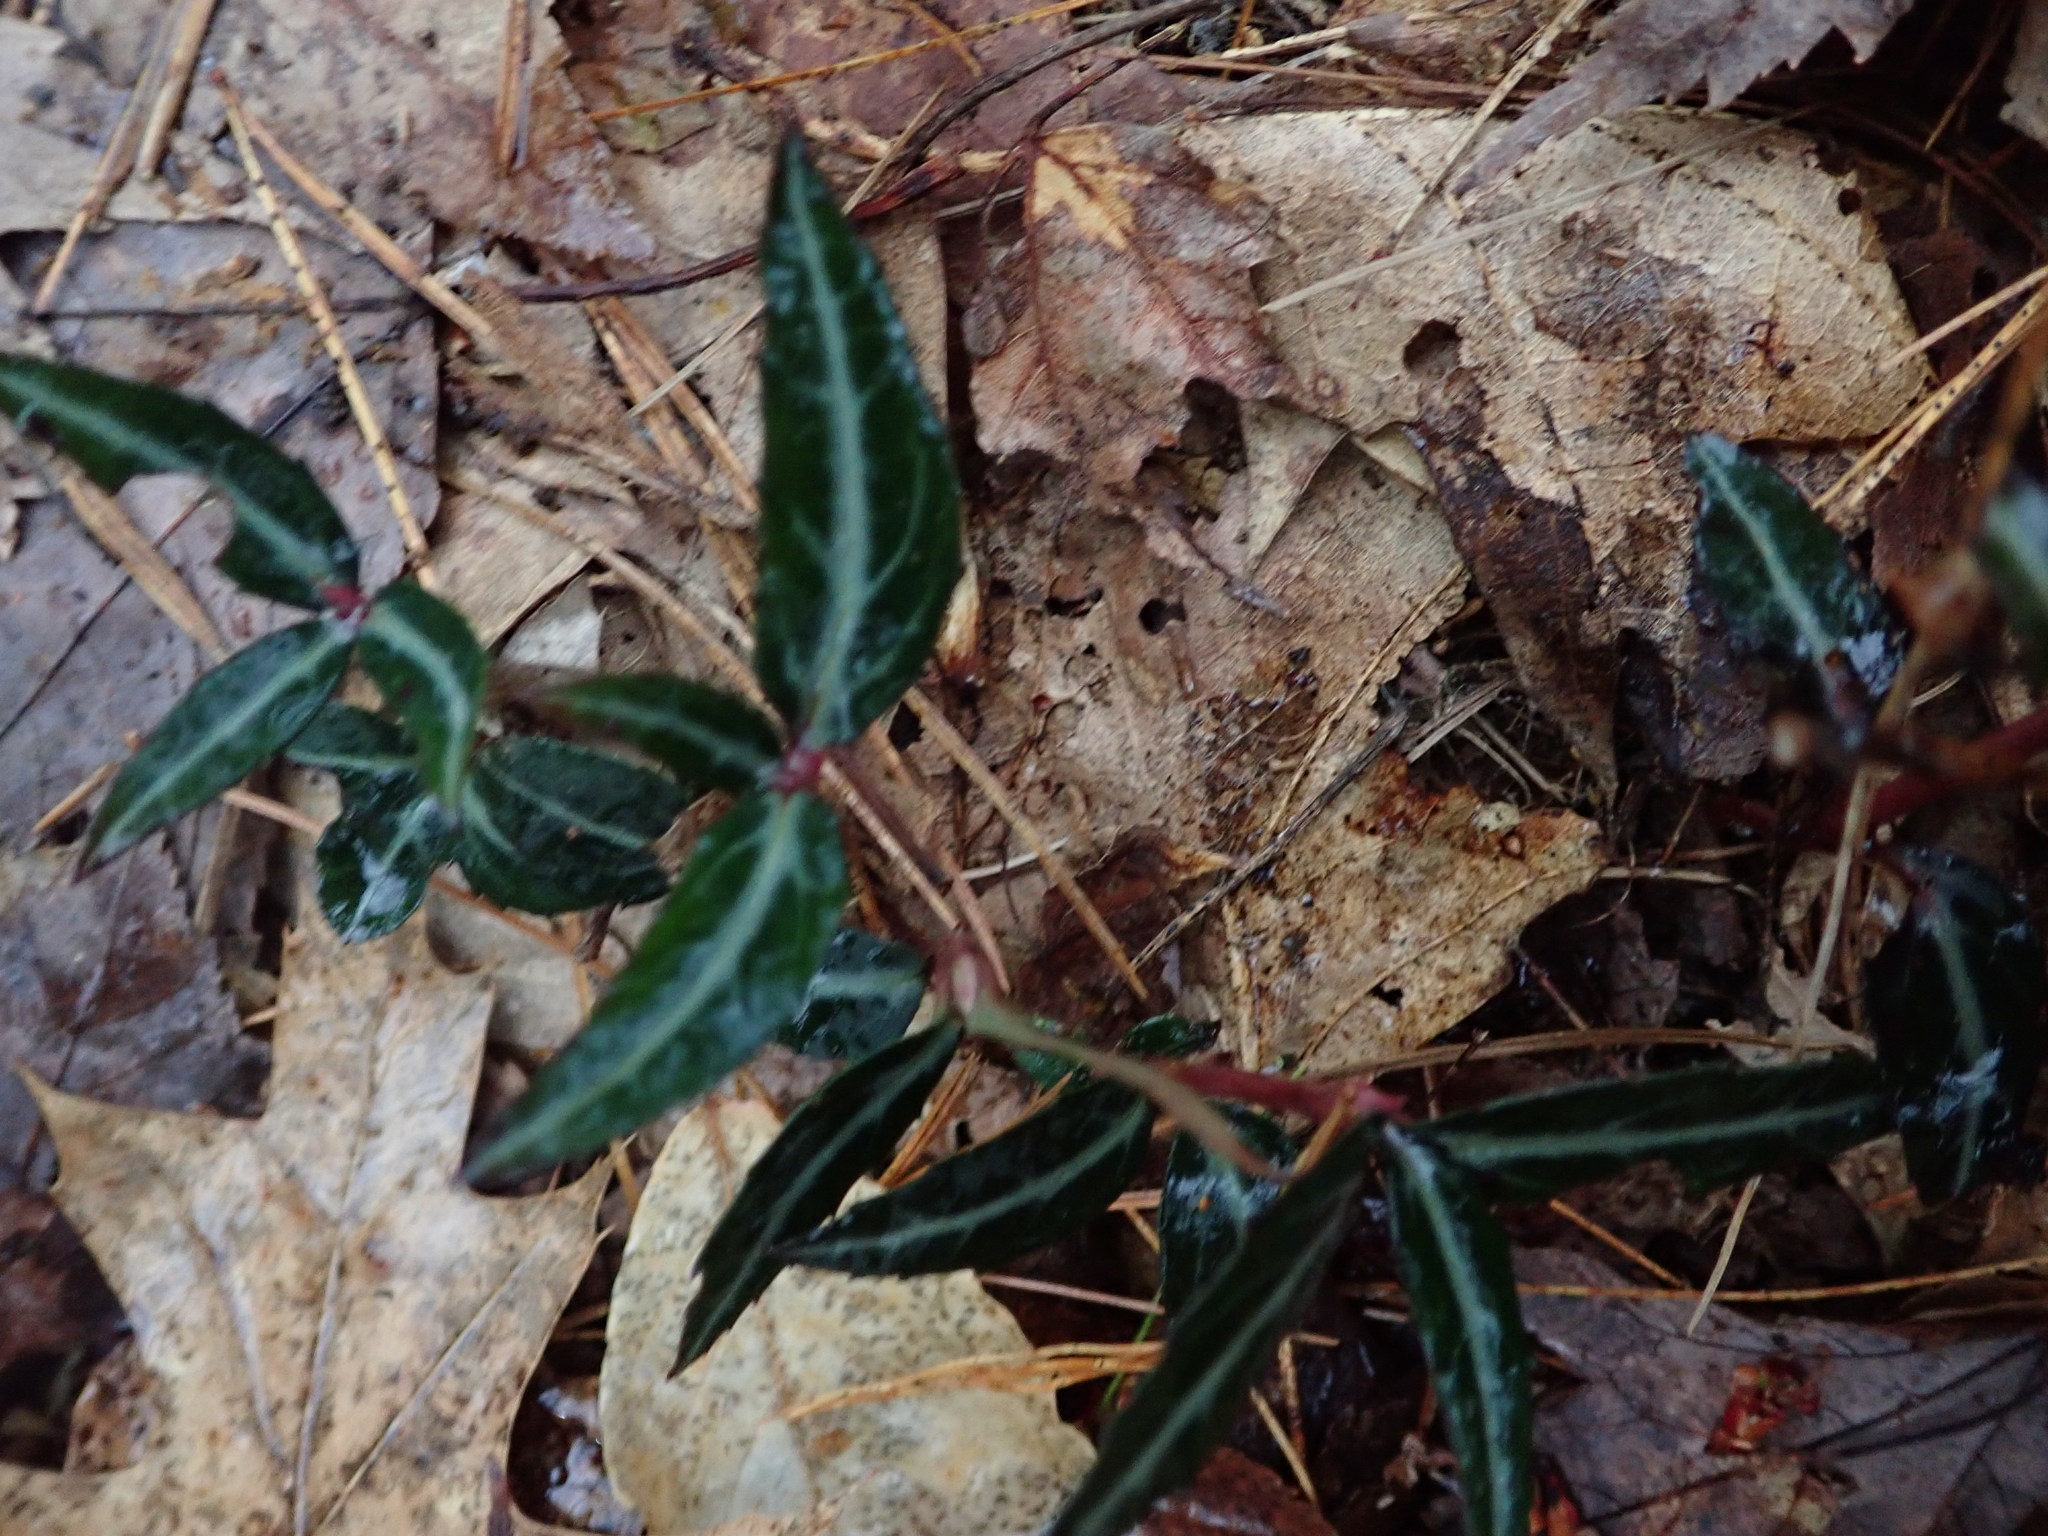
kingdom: Plantae
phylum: Tracheophyta
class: Magnoliopsida
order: Ericales
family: Ericaceae
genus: Chimaphila
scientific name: Chimaphila maculata
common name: Spotted pipsissewa
